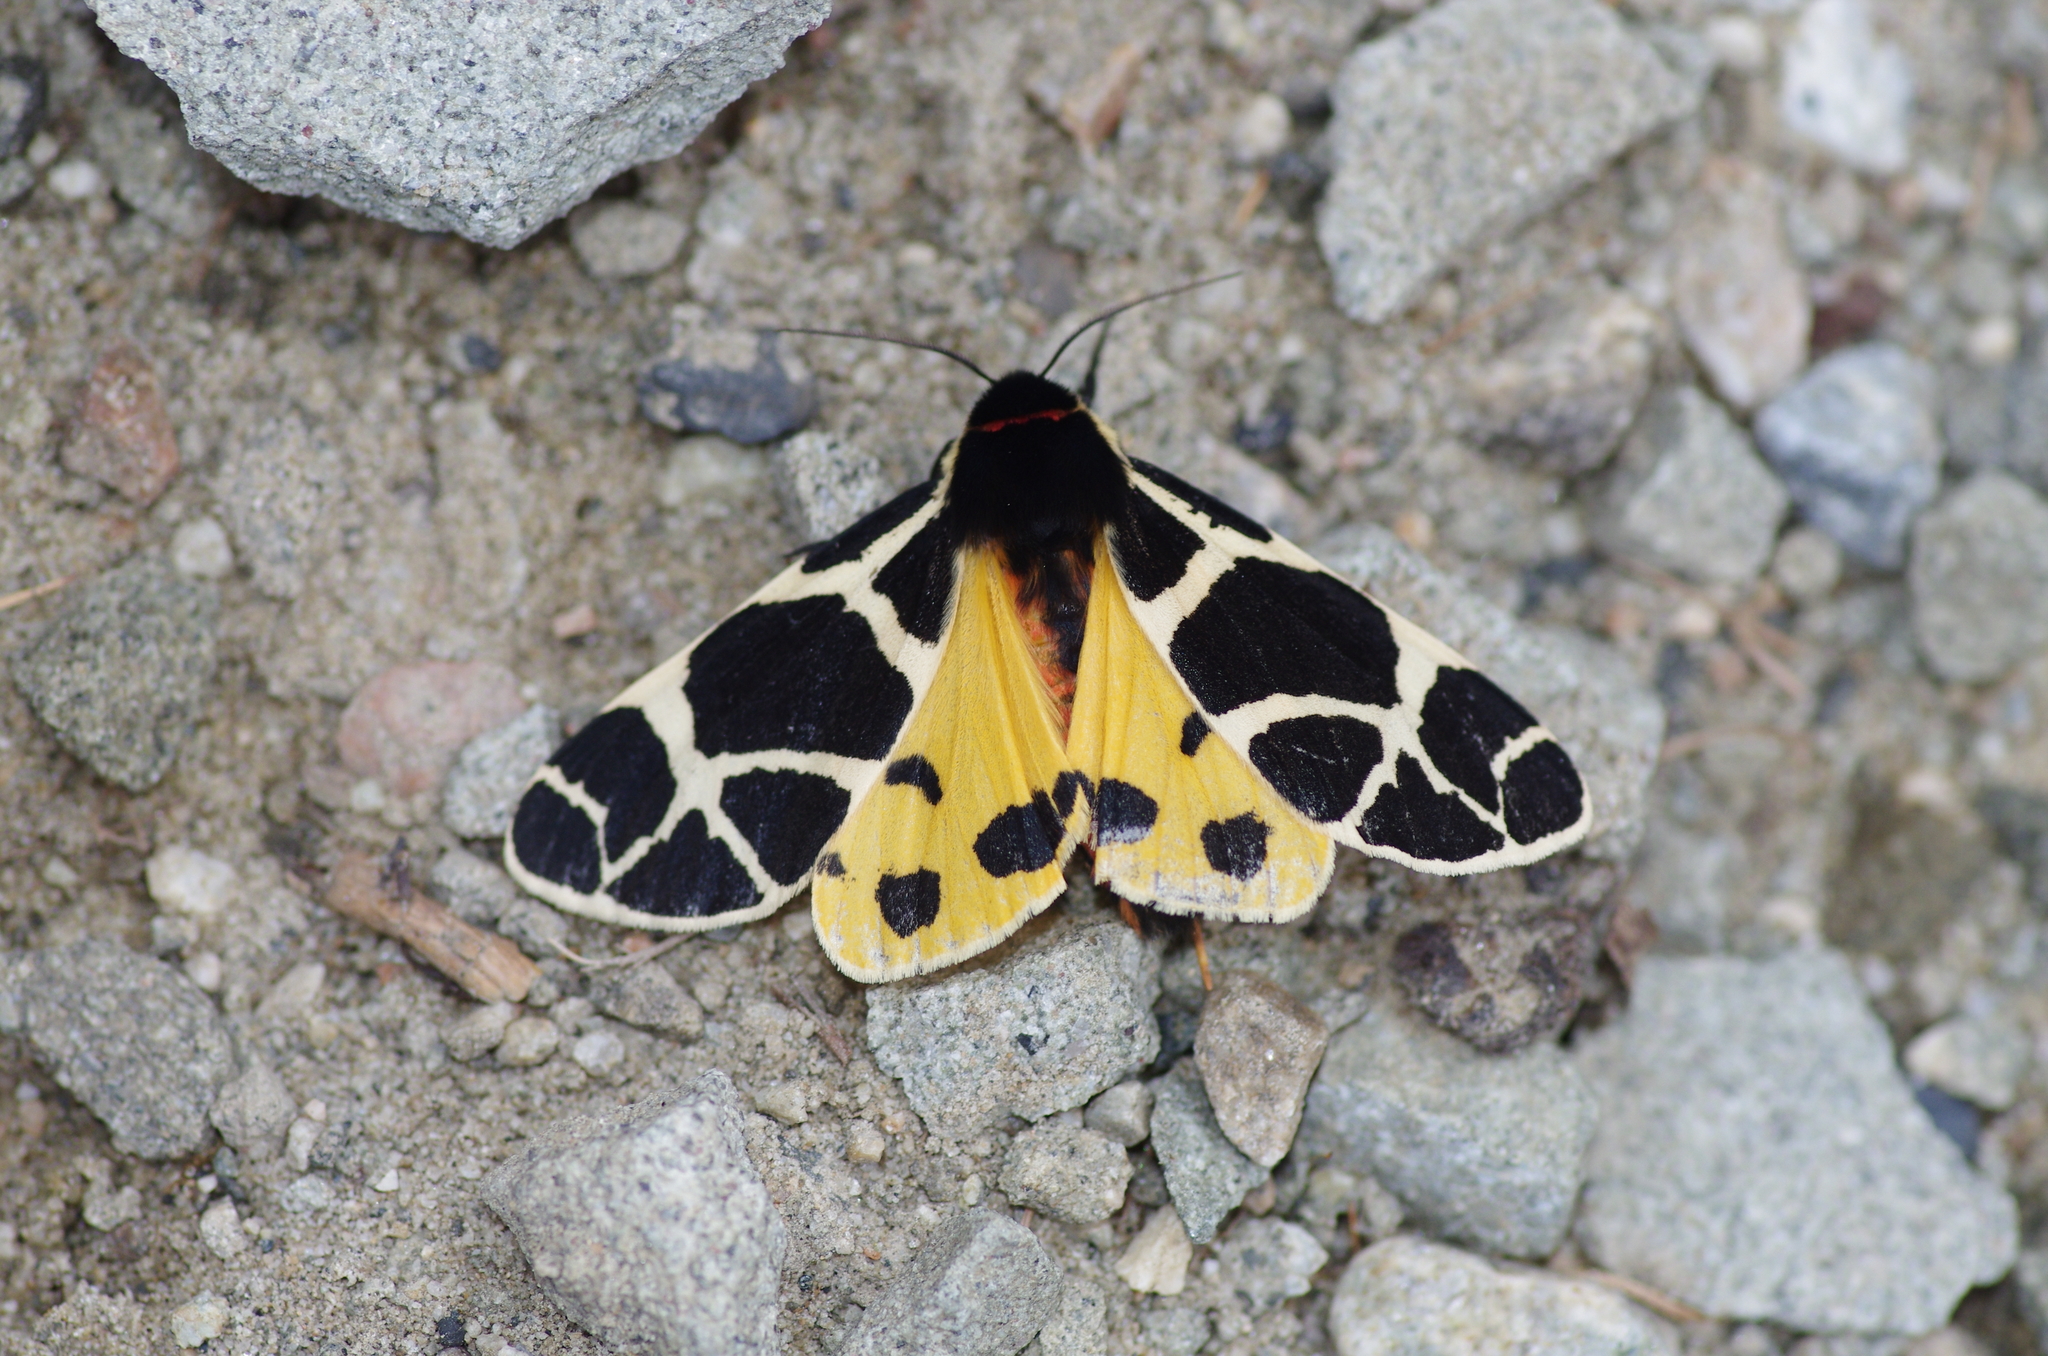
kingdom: Animalia
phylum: Arthropoda
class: Insecta
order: Lepidoptera
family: Erebidae
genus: Arctia
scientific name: Arctia flavia
